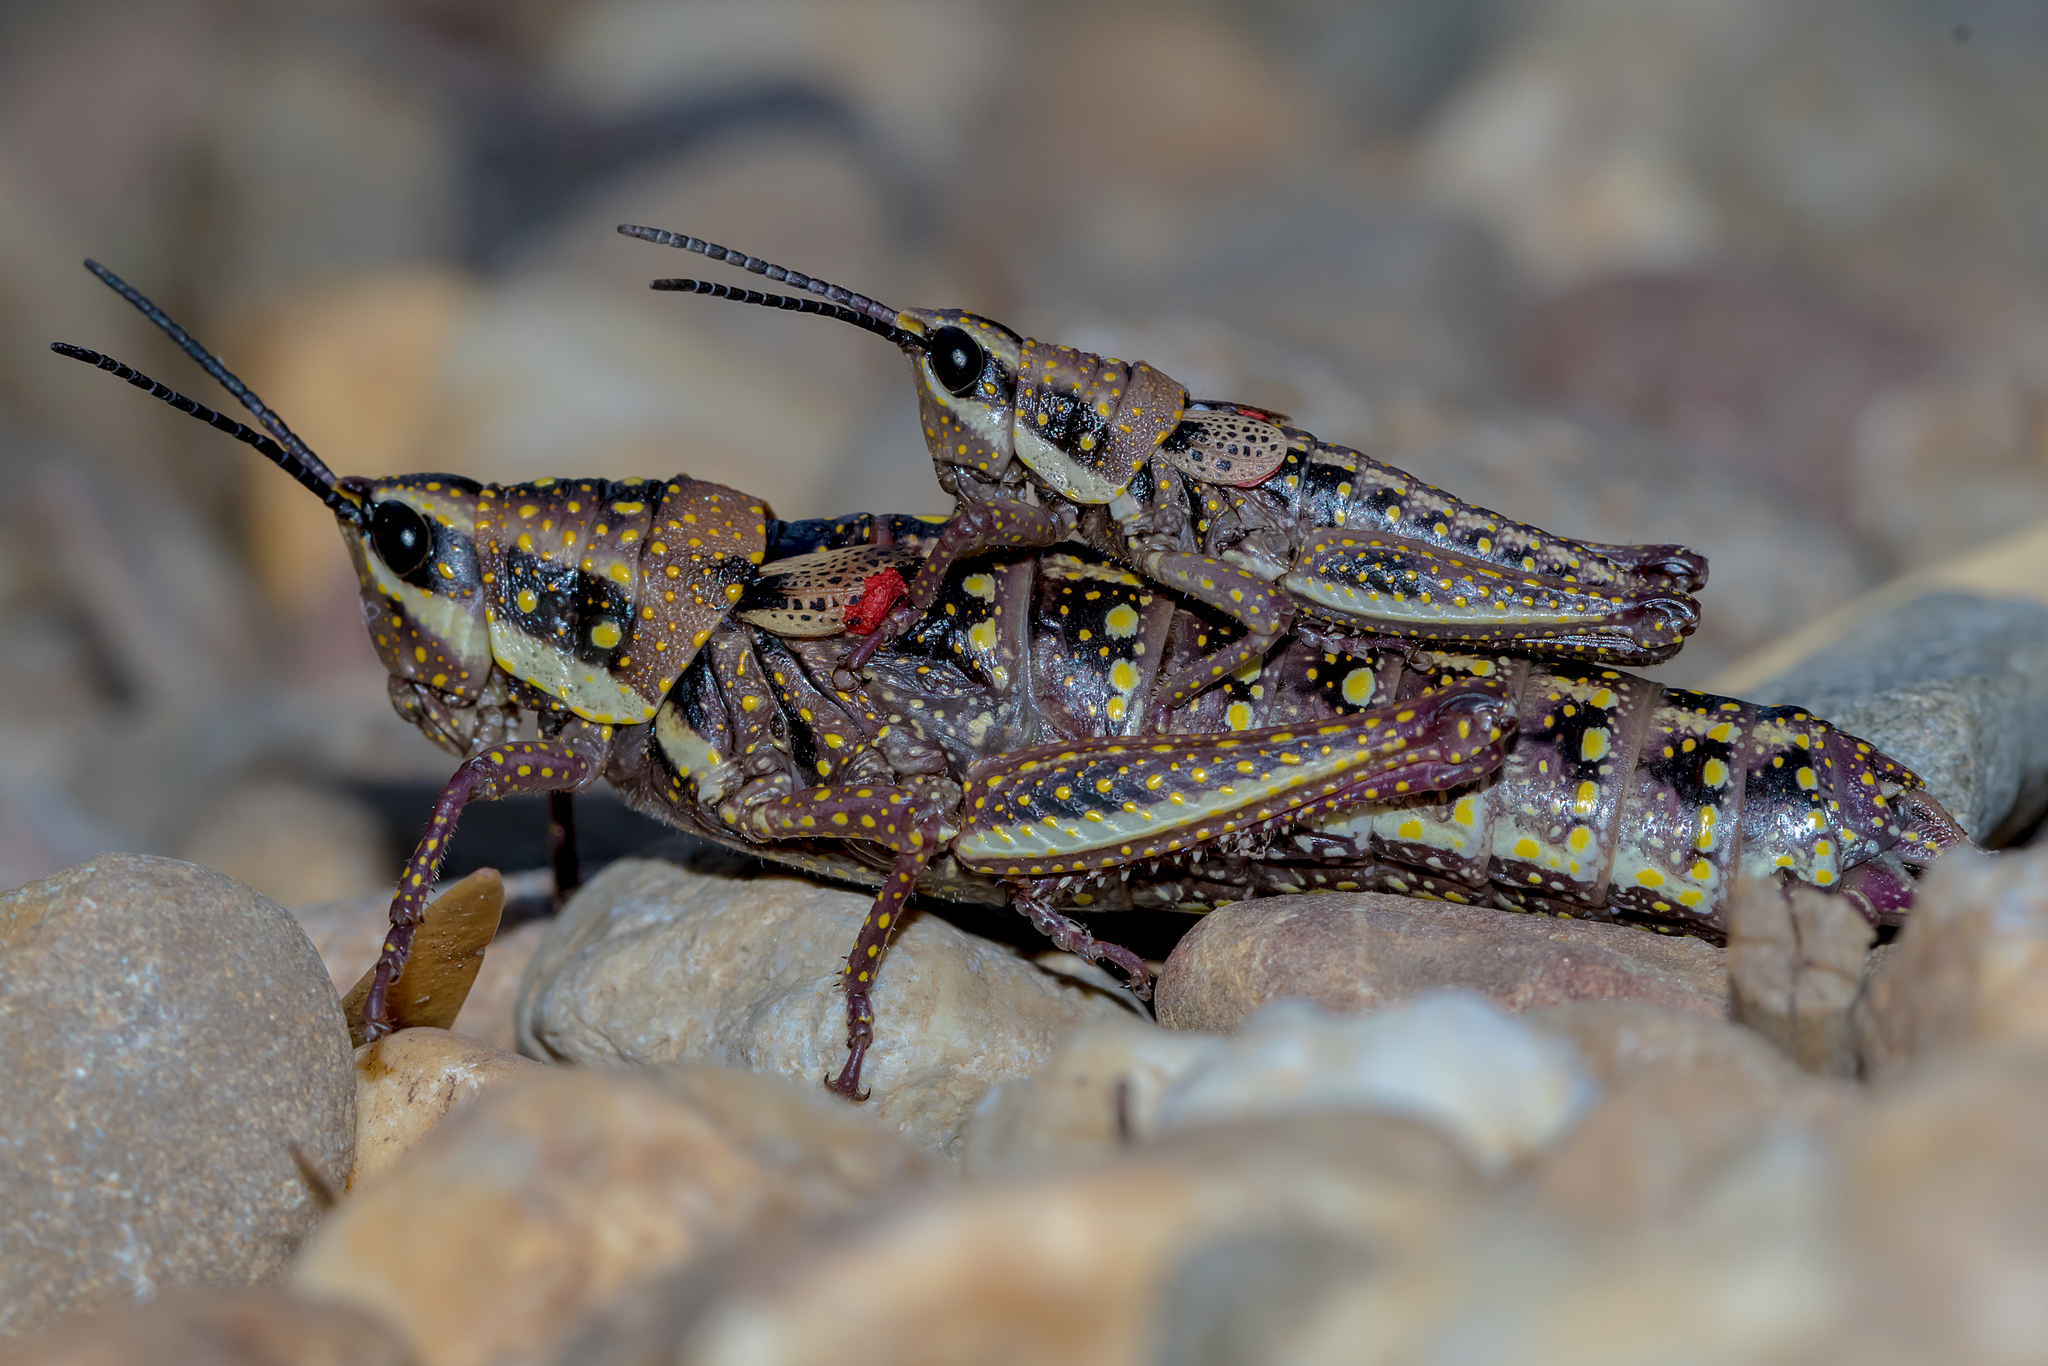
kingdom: Animalia
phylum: Arthropoda
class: Insecta
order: Orthoptera
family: Pyrgomorphidae
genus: Monistria
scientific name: Monistria pustulifera
